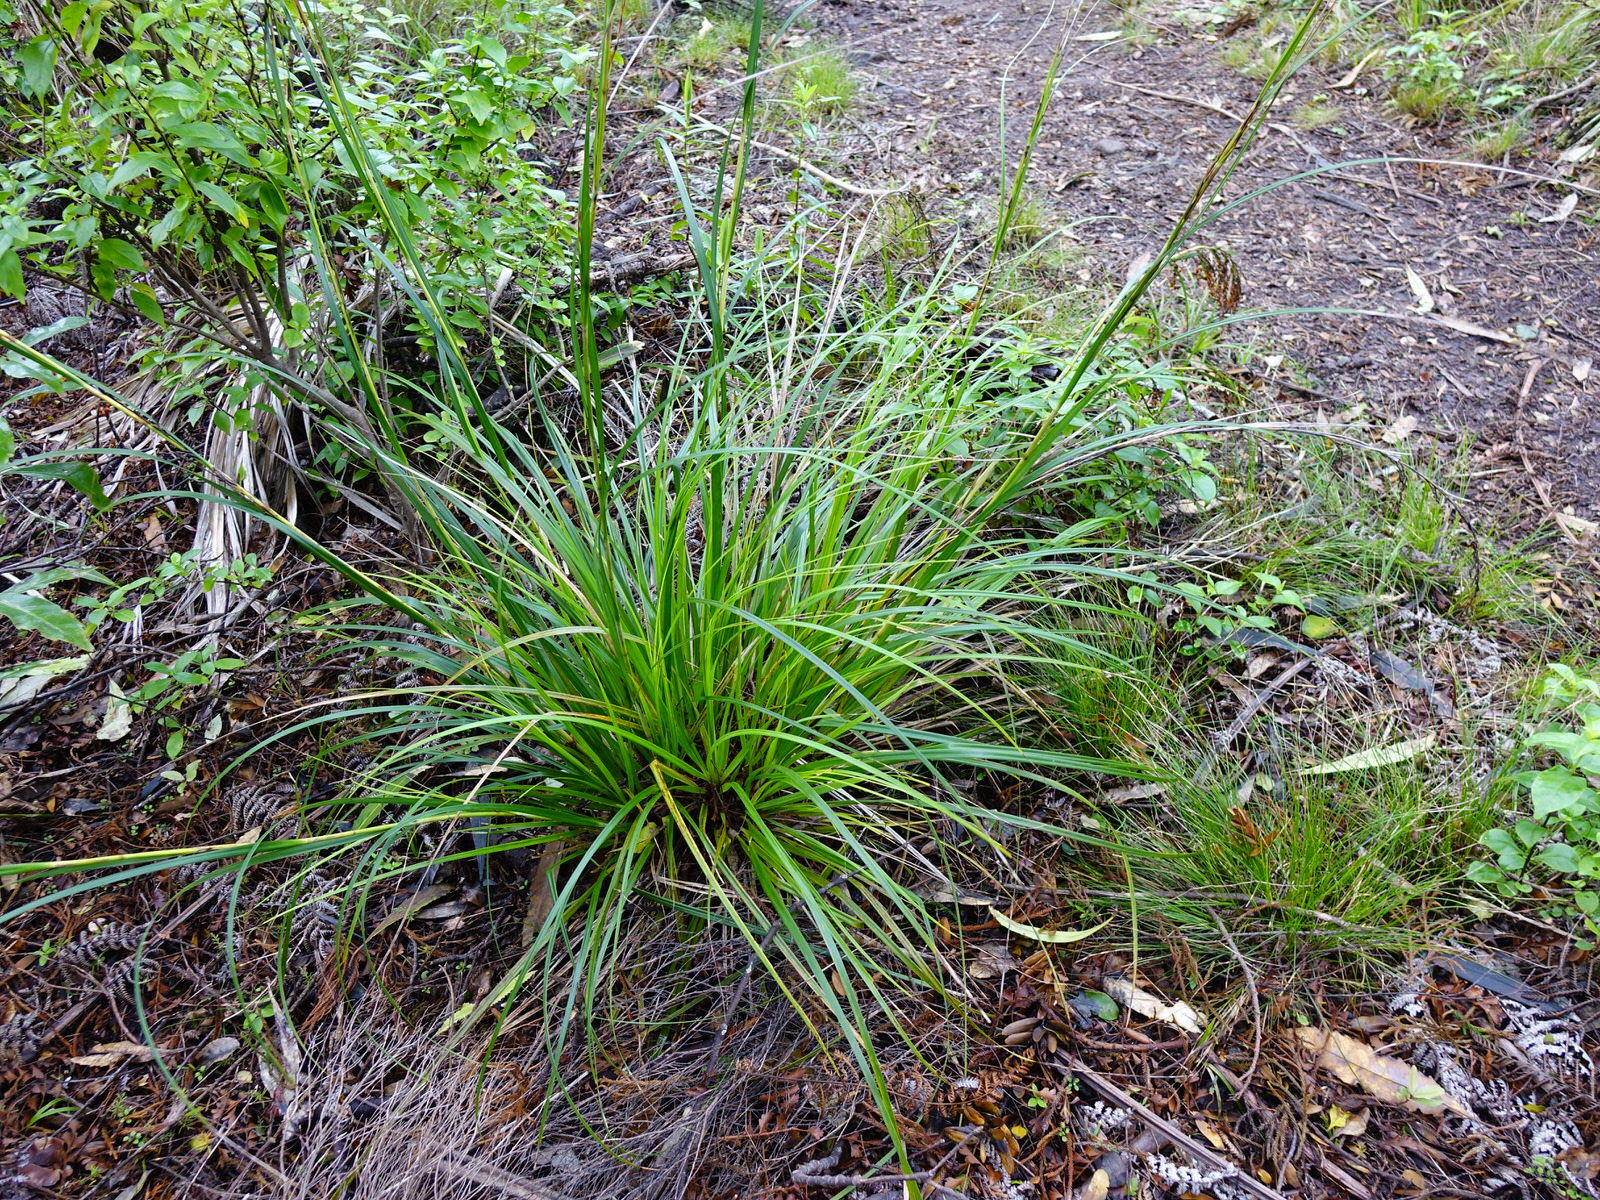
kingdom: Plantae
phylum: Tracheophyta
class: Liliopsida
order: Poales
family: Cyperaceae
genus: Gahnia
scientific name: Gahnia pauciflora
